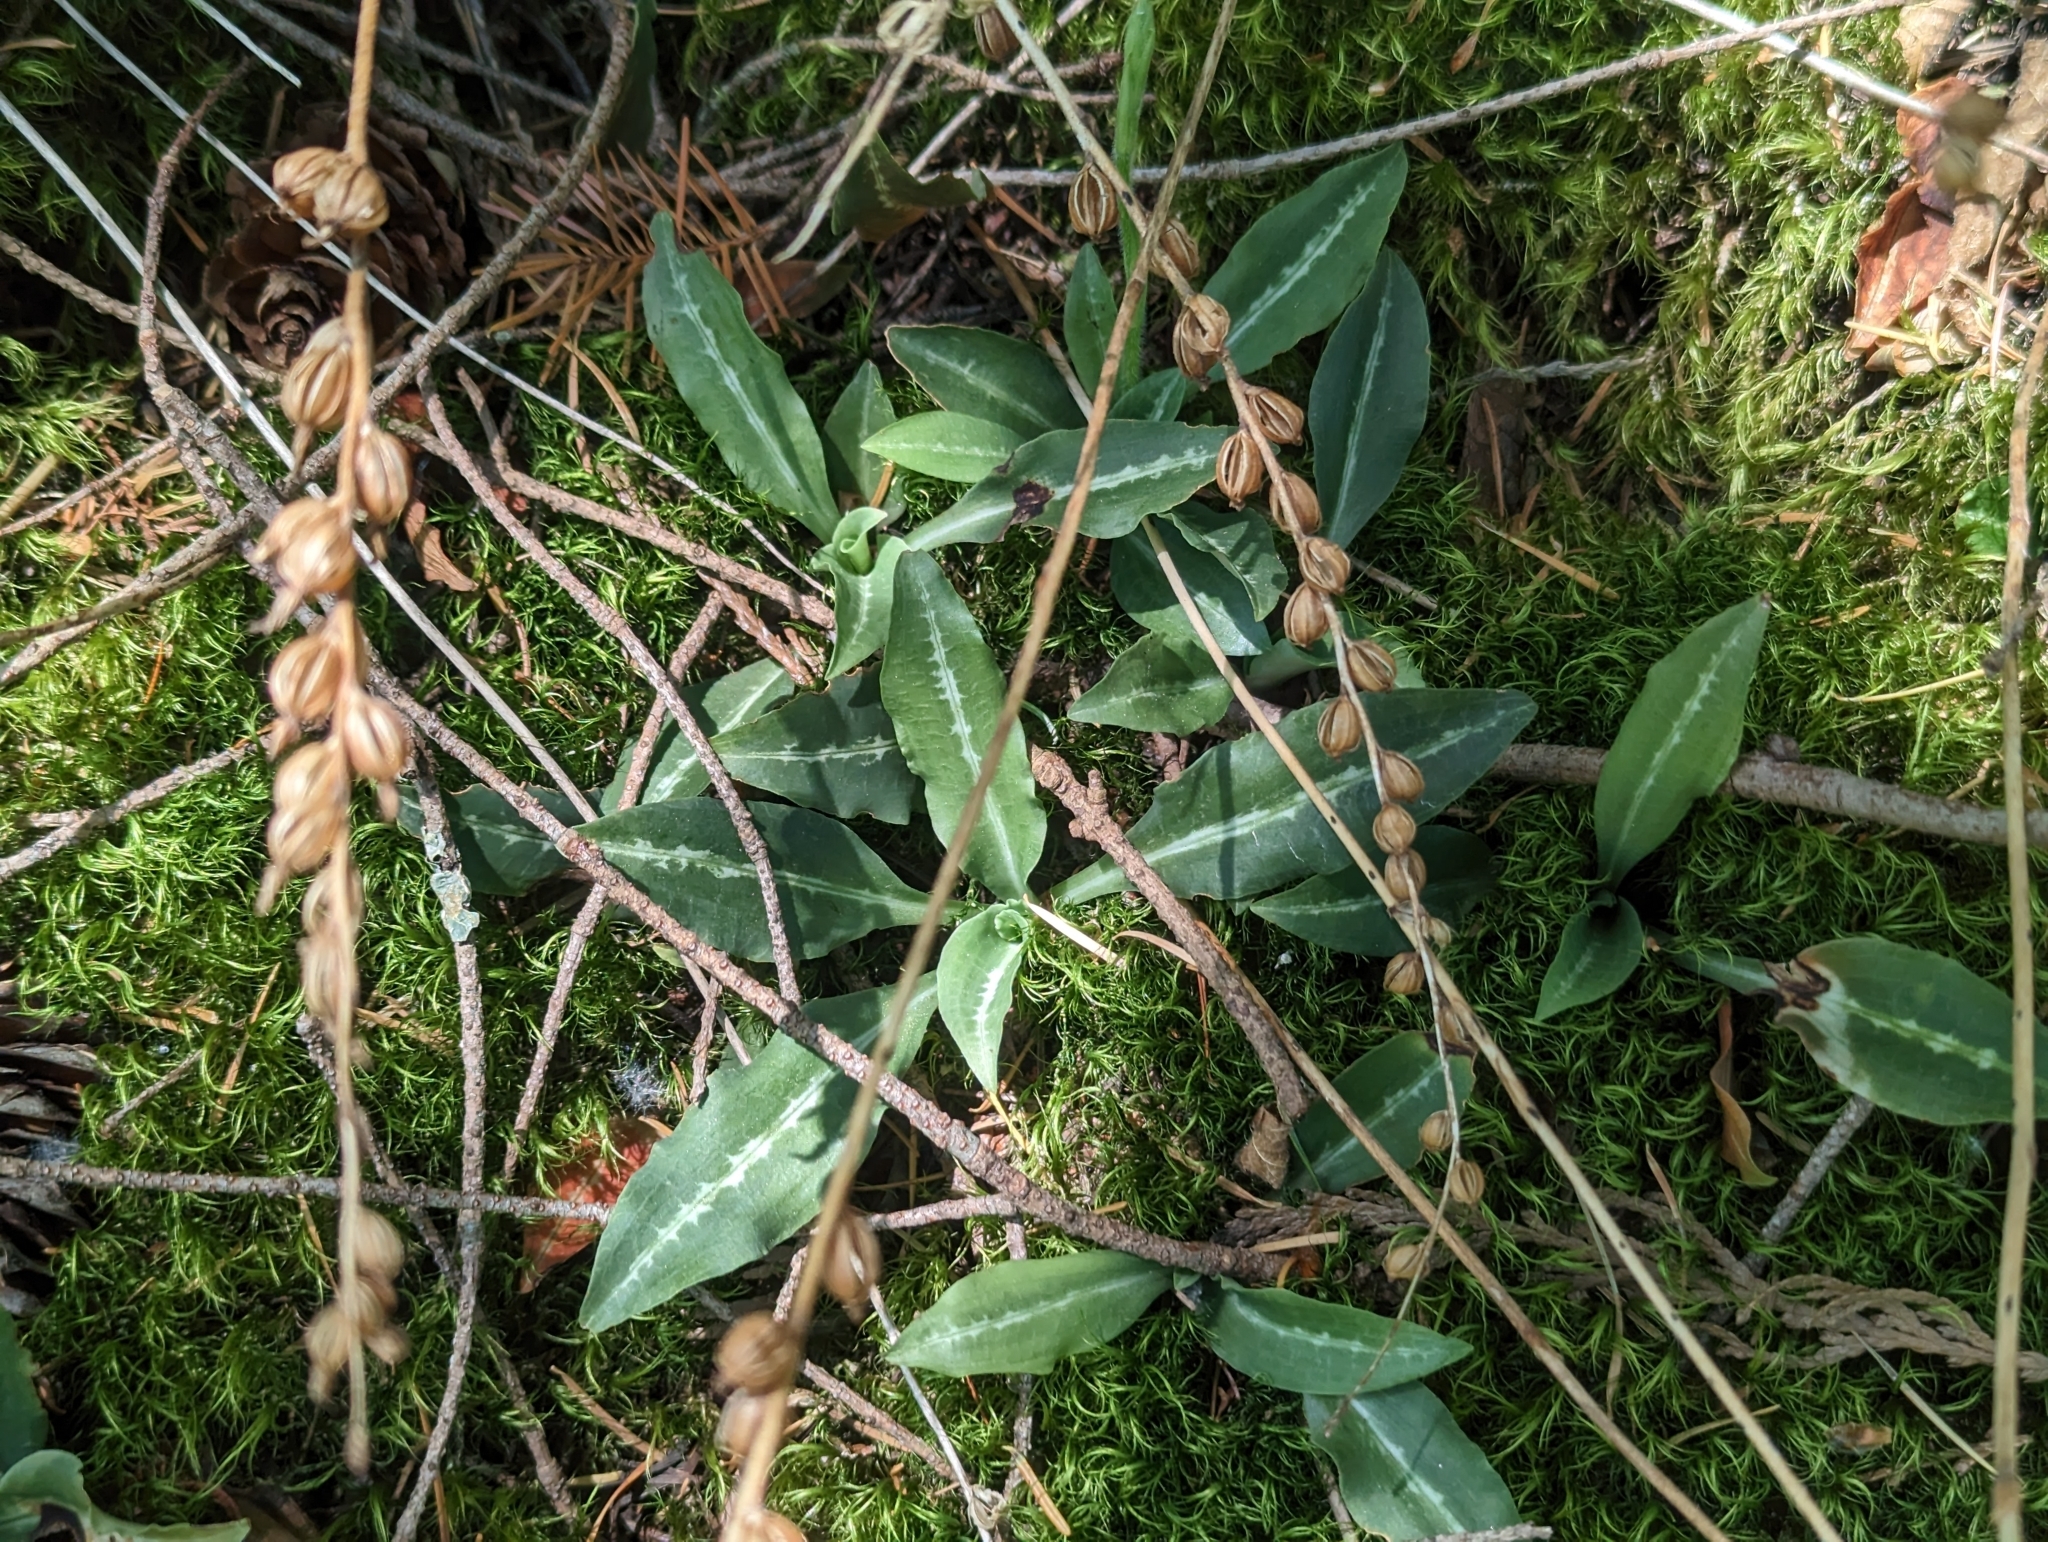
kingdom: Plantae
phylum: Tracheophyta
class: Liliopsida
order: Asparagales
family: Orchidaceae
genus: Goodyera
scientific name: Goodyera oblongifolia
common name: Giant rattlesnake-plantain
